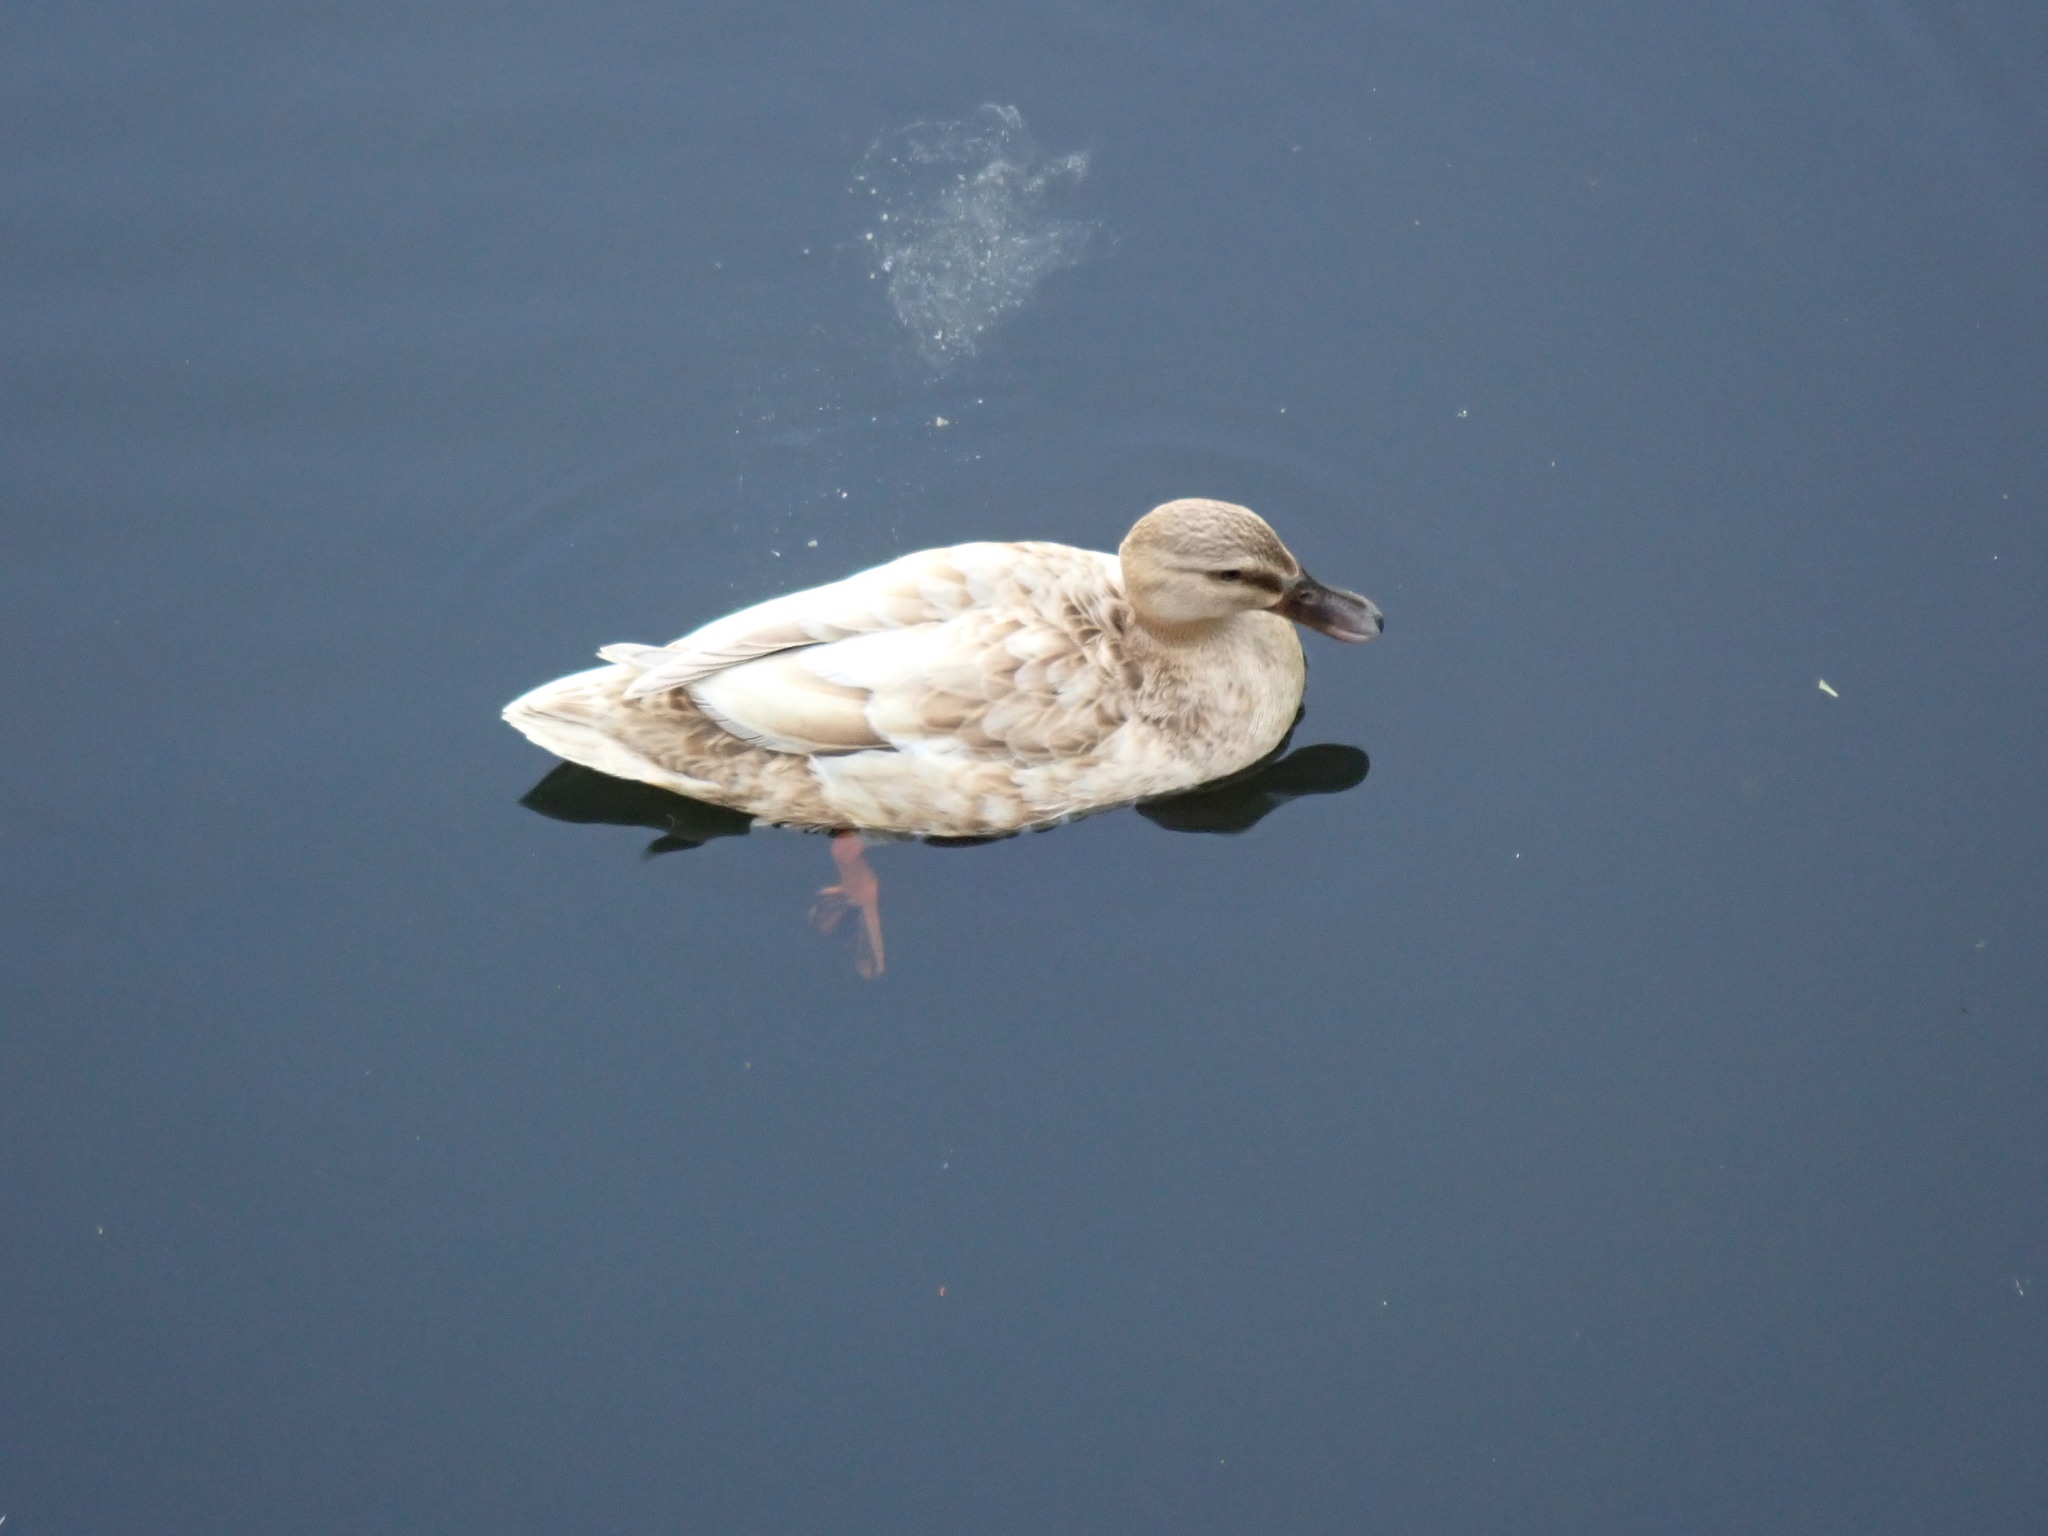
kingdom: Animalia
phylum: Chordata
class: Aves
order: Anseriformes
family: Anatidae
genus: Anas
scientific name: Anas
